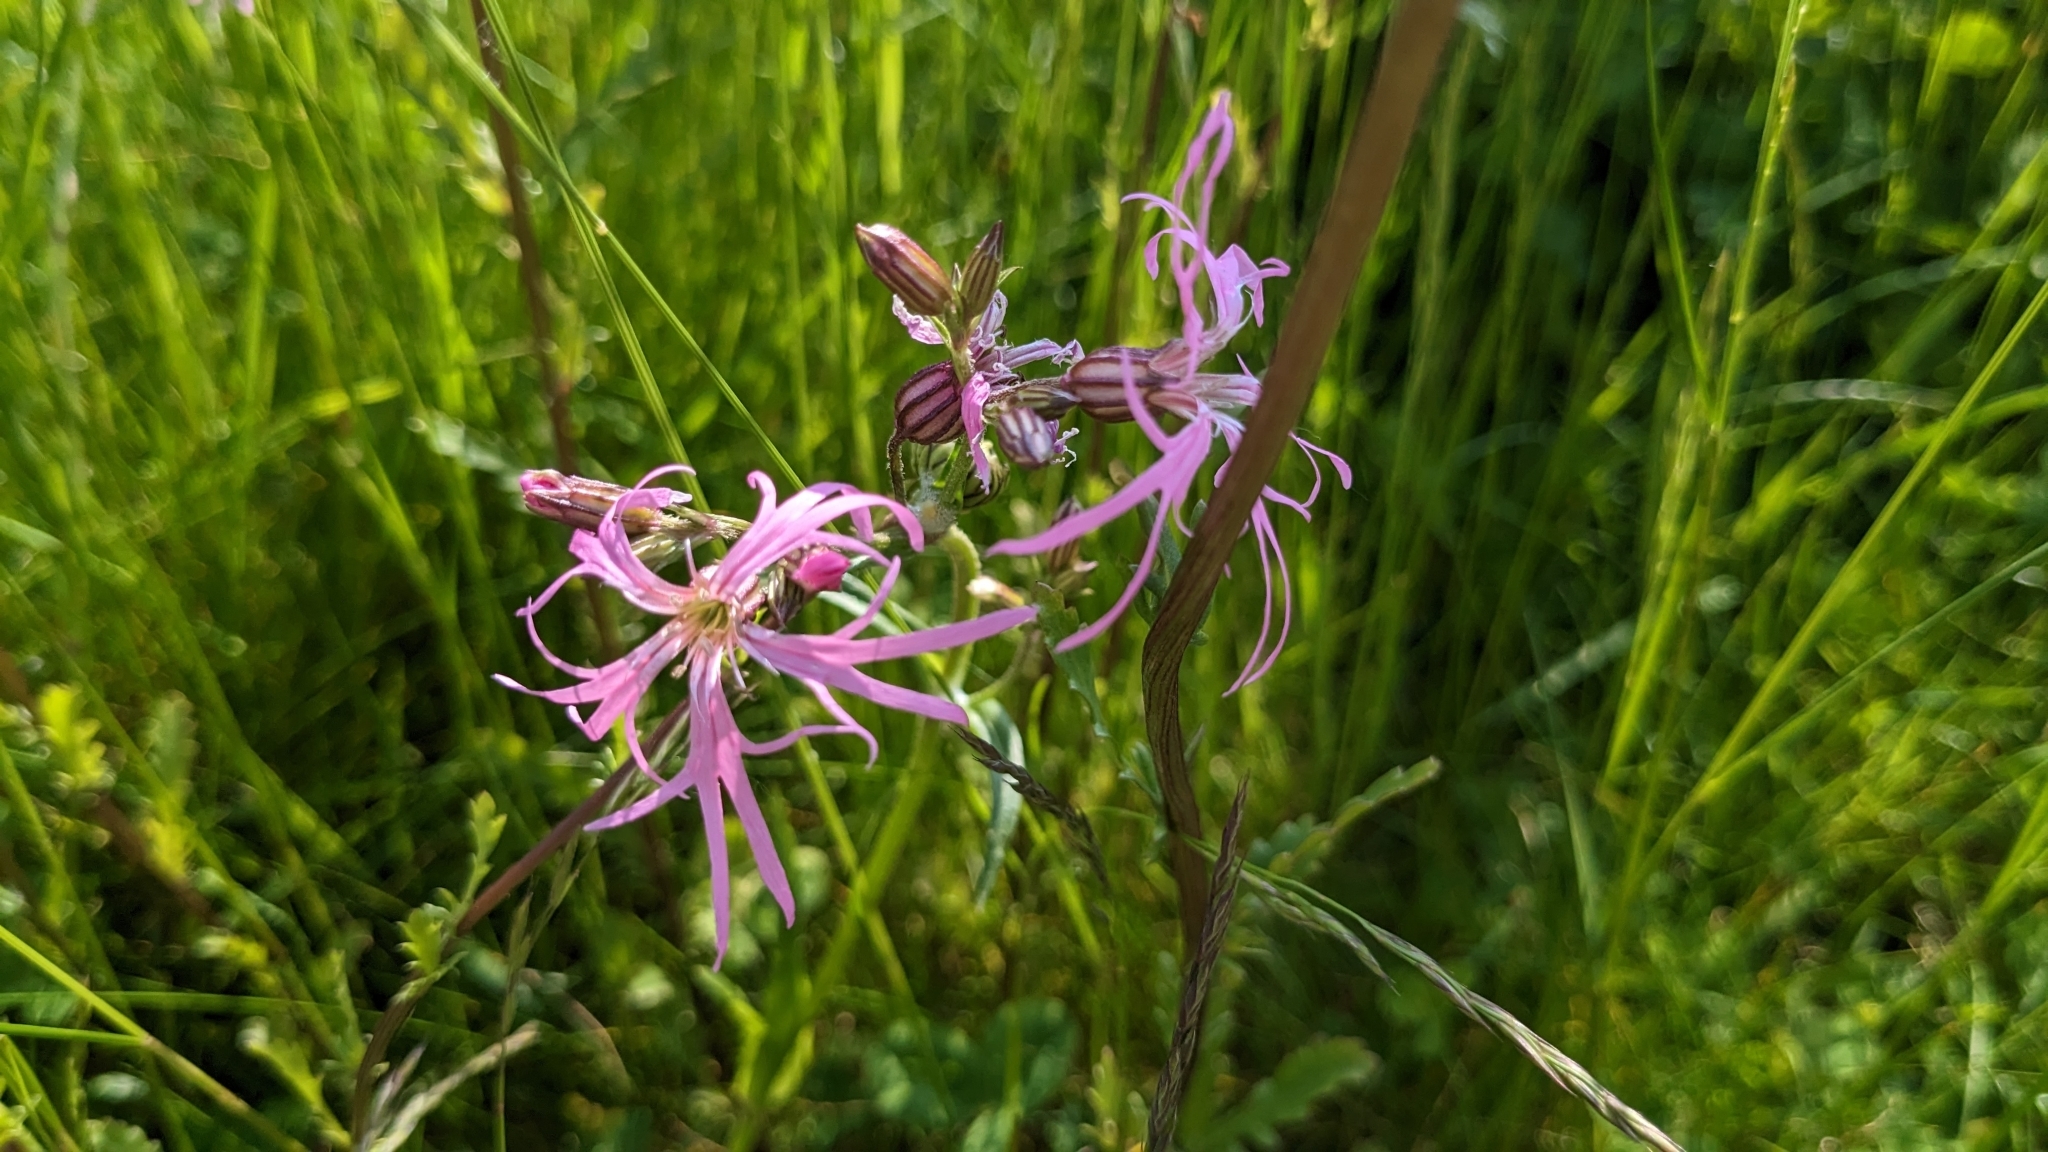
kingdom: Plantae
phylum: Tracheophyta
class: Magnoliopsida
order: Caryophyllales
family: Caryophyllaceae
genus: Silene
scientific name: Silene flos-cuculi
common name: Ragged-robin
